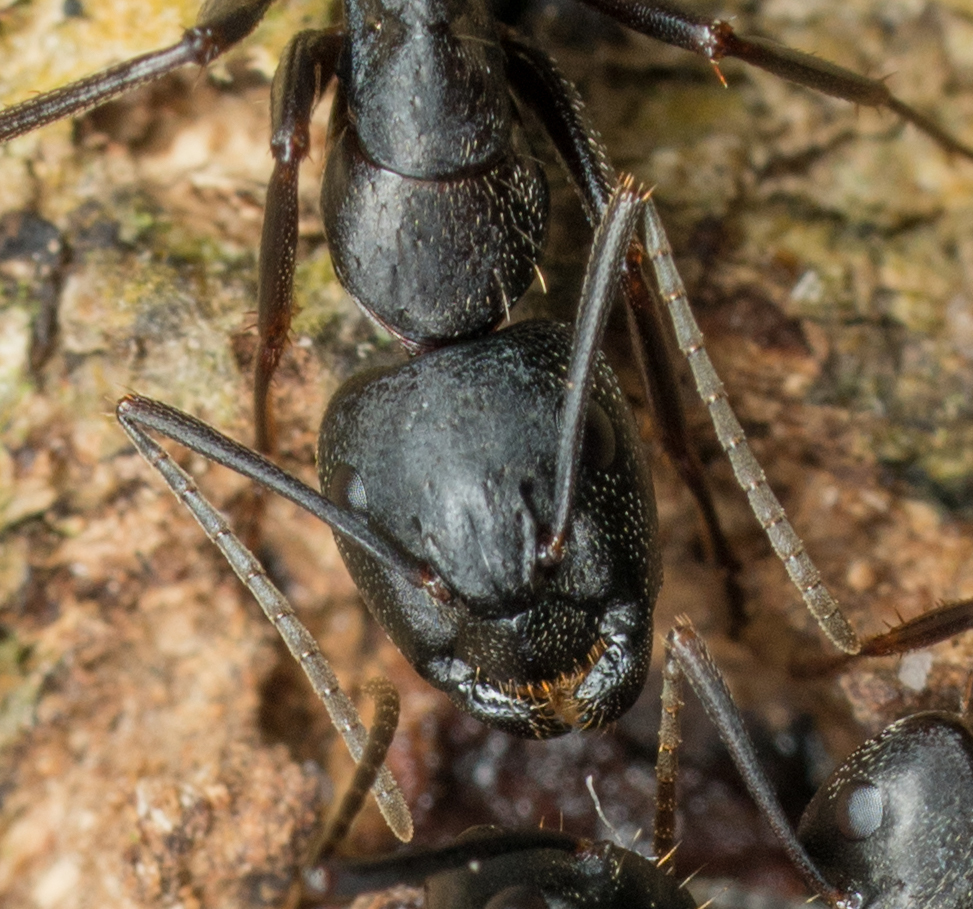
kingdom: Animalia
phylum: Arthropoda
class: Insecta
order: Hymenoptera
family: Formicidae
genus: Camponotus
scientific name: Camponotus pennsylvanicus
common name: Black carpenter ant
